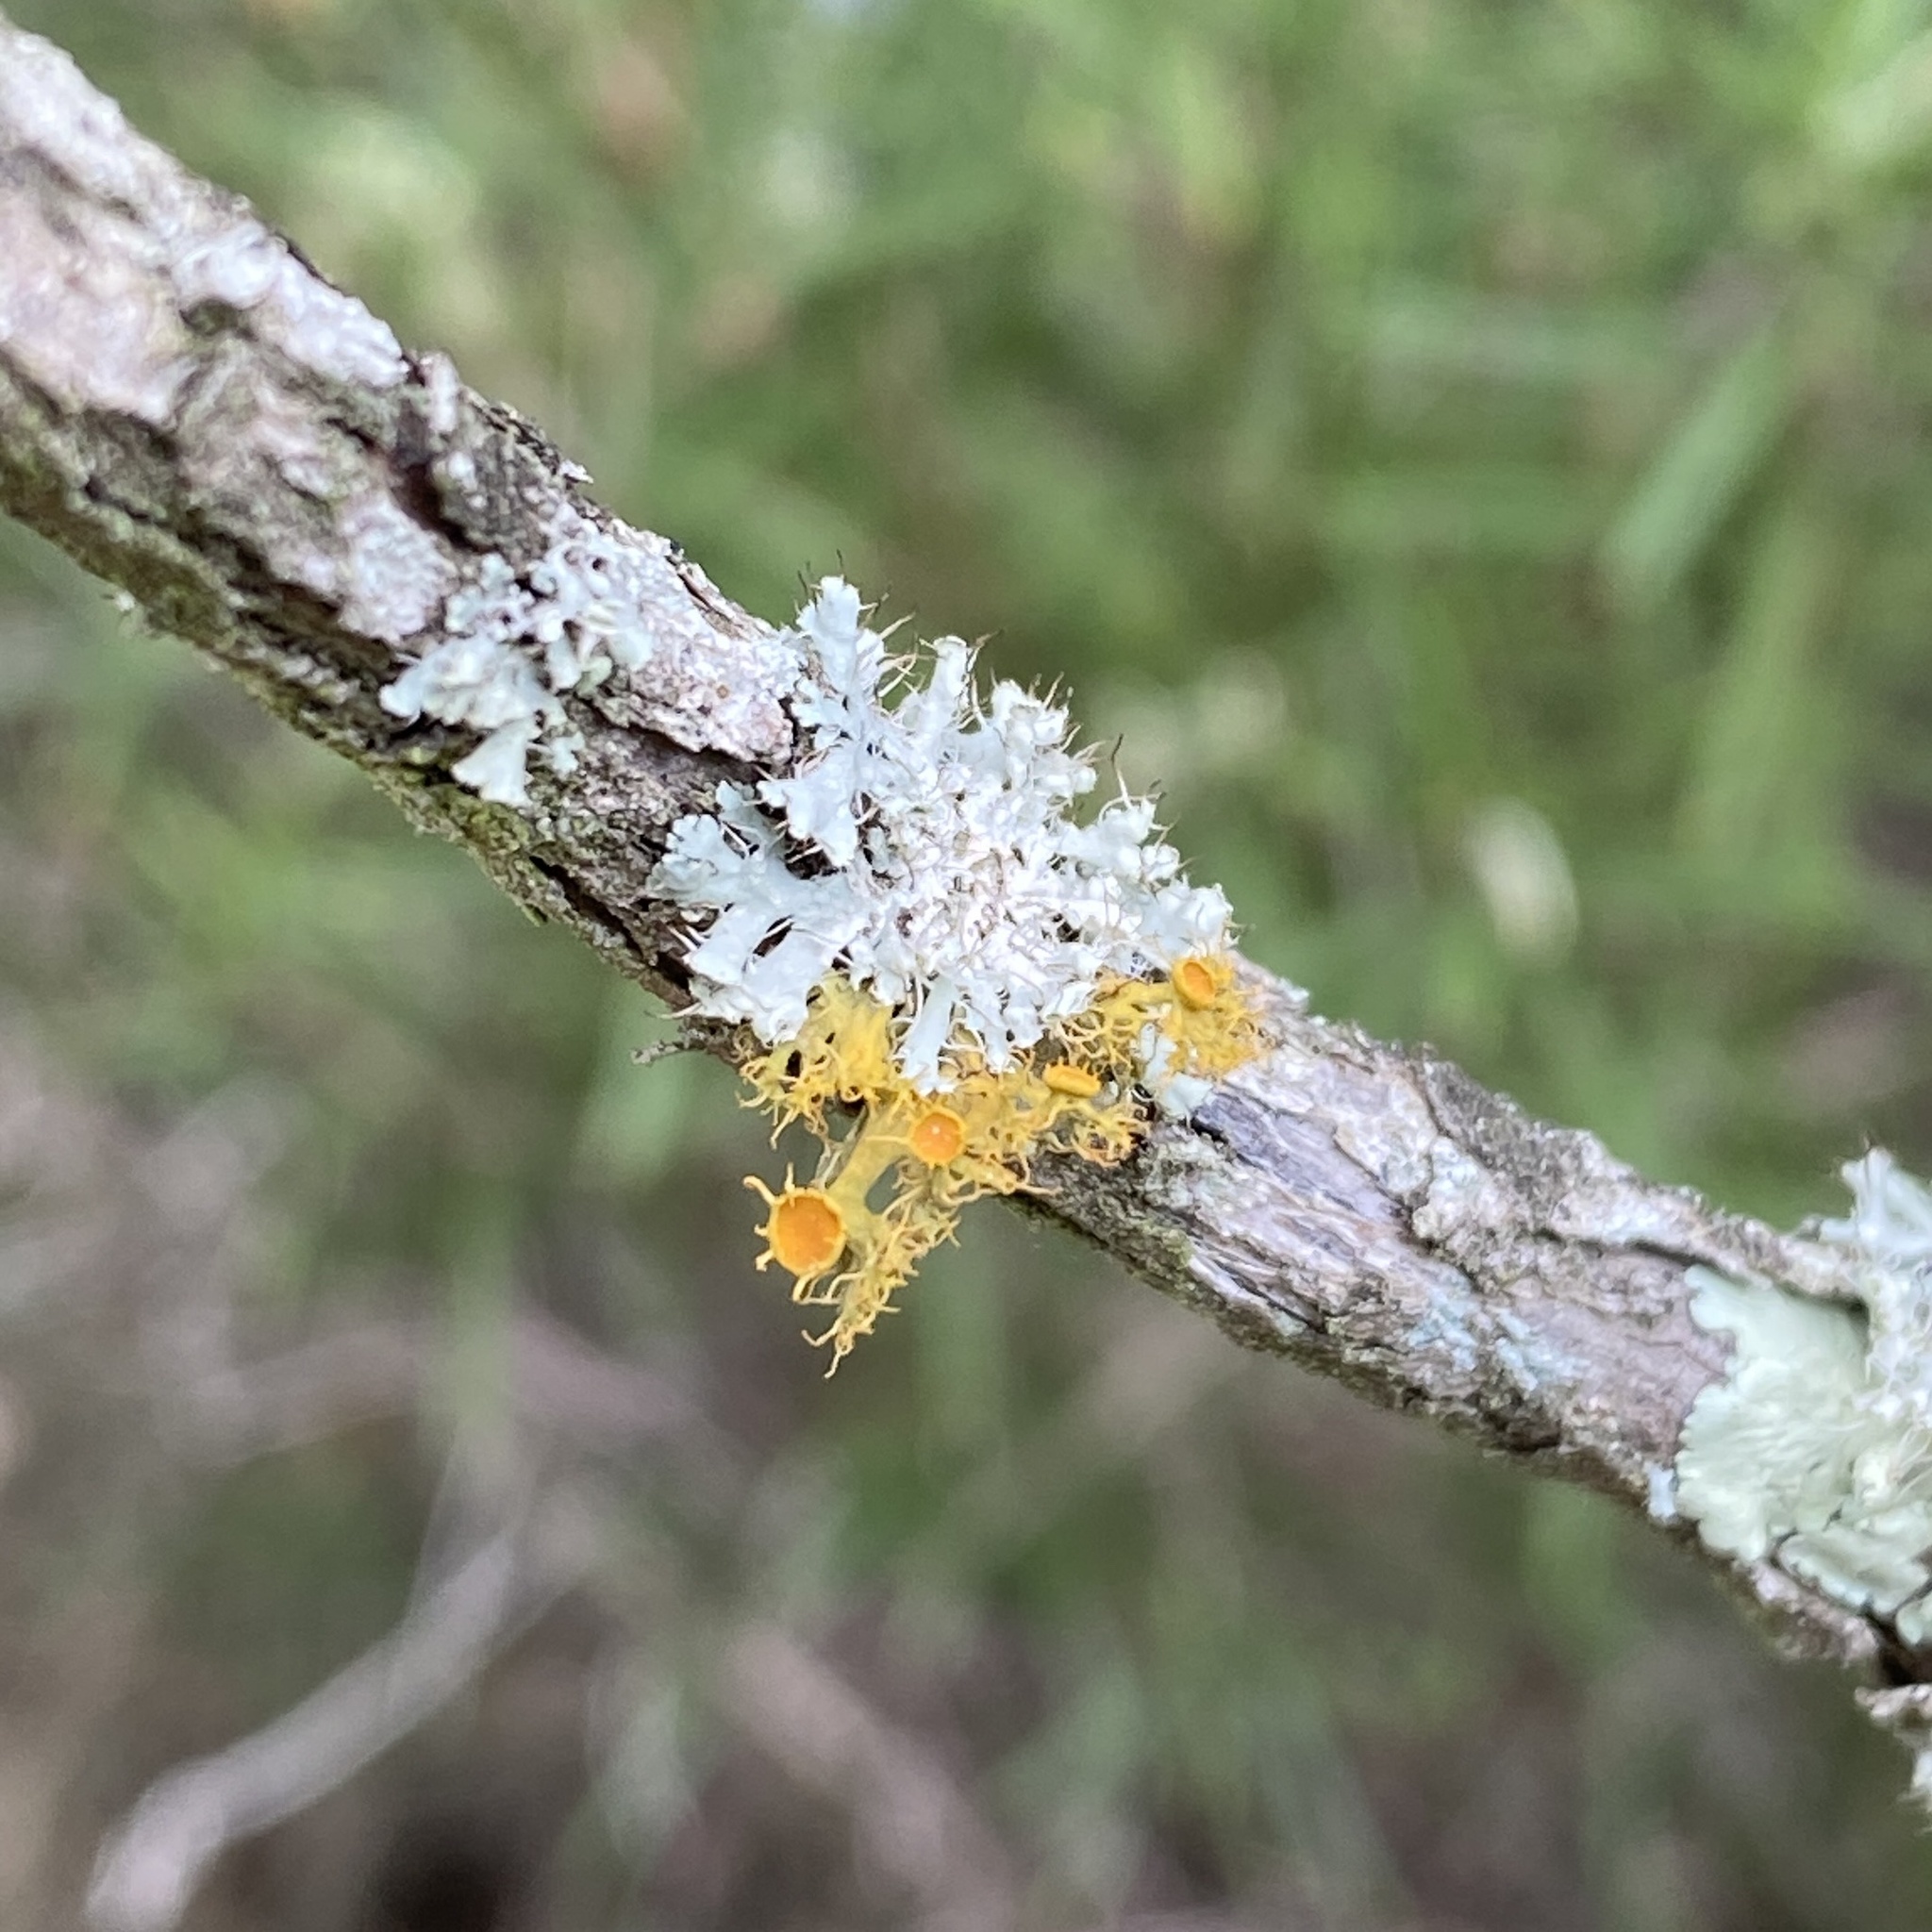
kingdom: Fungi
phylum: Ascomycota
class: Lecanoromycetes
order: Teloschistales
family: Teloschistaceae
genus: Niorma
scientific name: Niorma chrysophthalma
